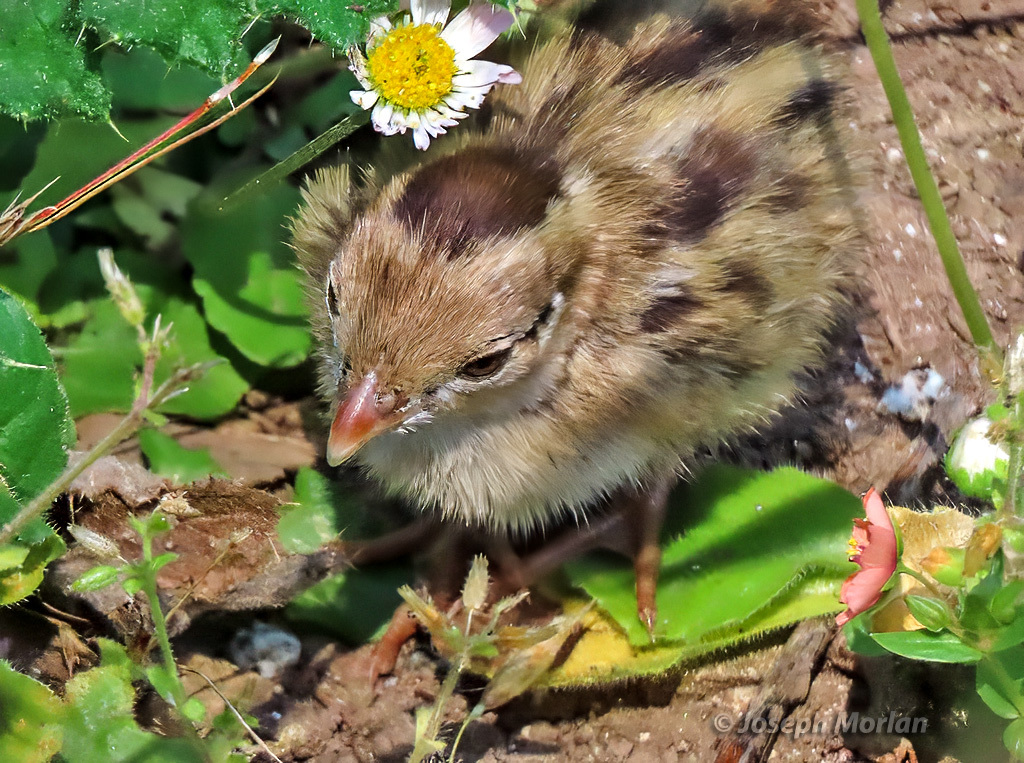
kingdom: Animalia
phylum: Chordata
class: Aves
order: Galliformes
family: Odontophoridae
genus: Callipepla
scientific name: Callipepla californica
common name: California quail
